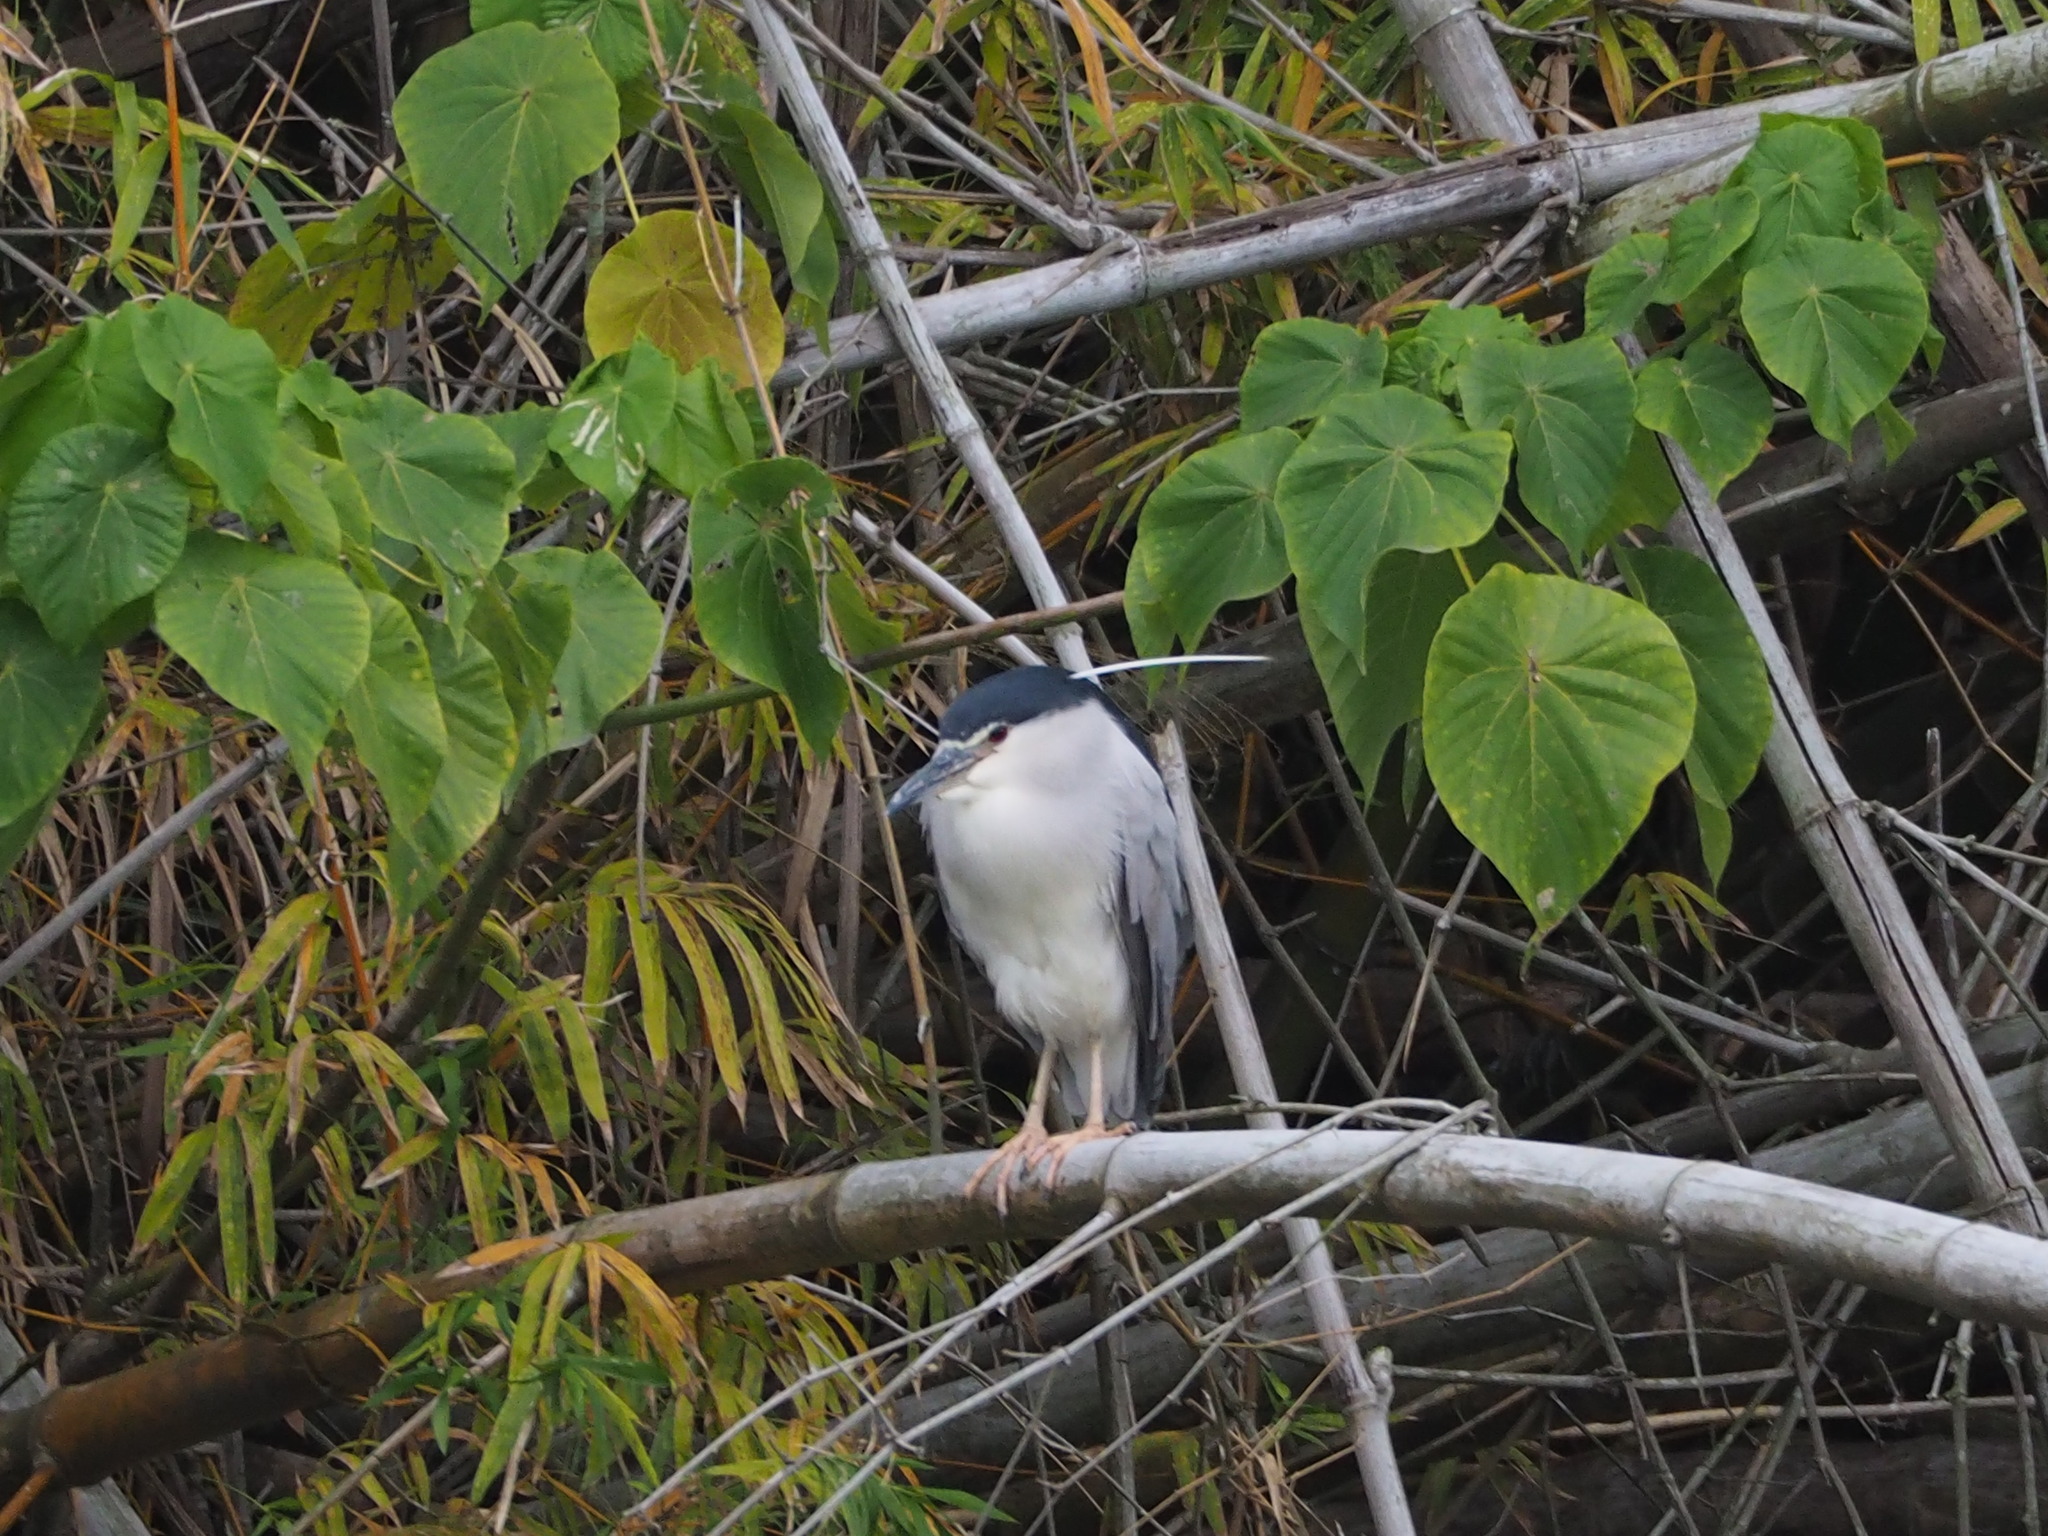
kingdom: Animalia
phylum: Chordata
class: Aves
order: Pelecaniformes
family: Ardeidae
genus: Nycticorax
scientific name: Nycticorax nycticorax
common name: Black-crowned night heron
